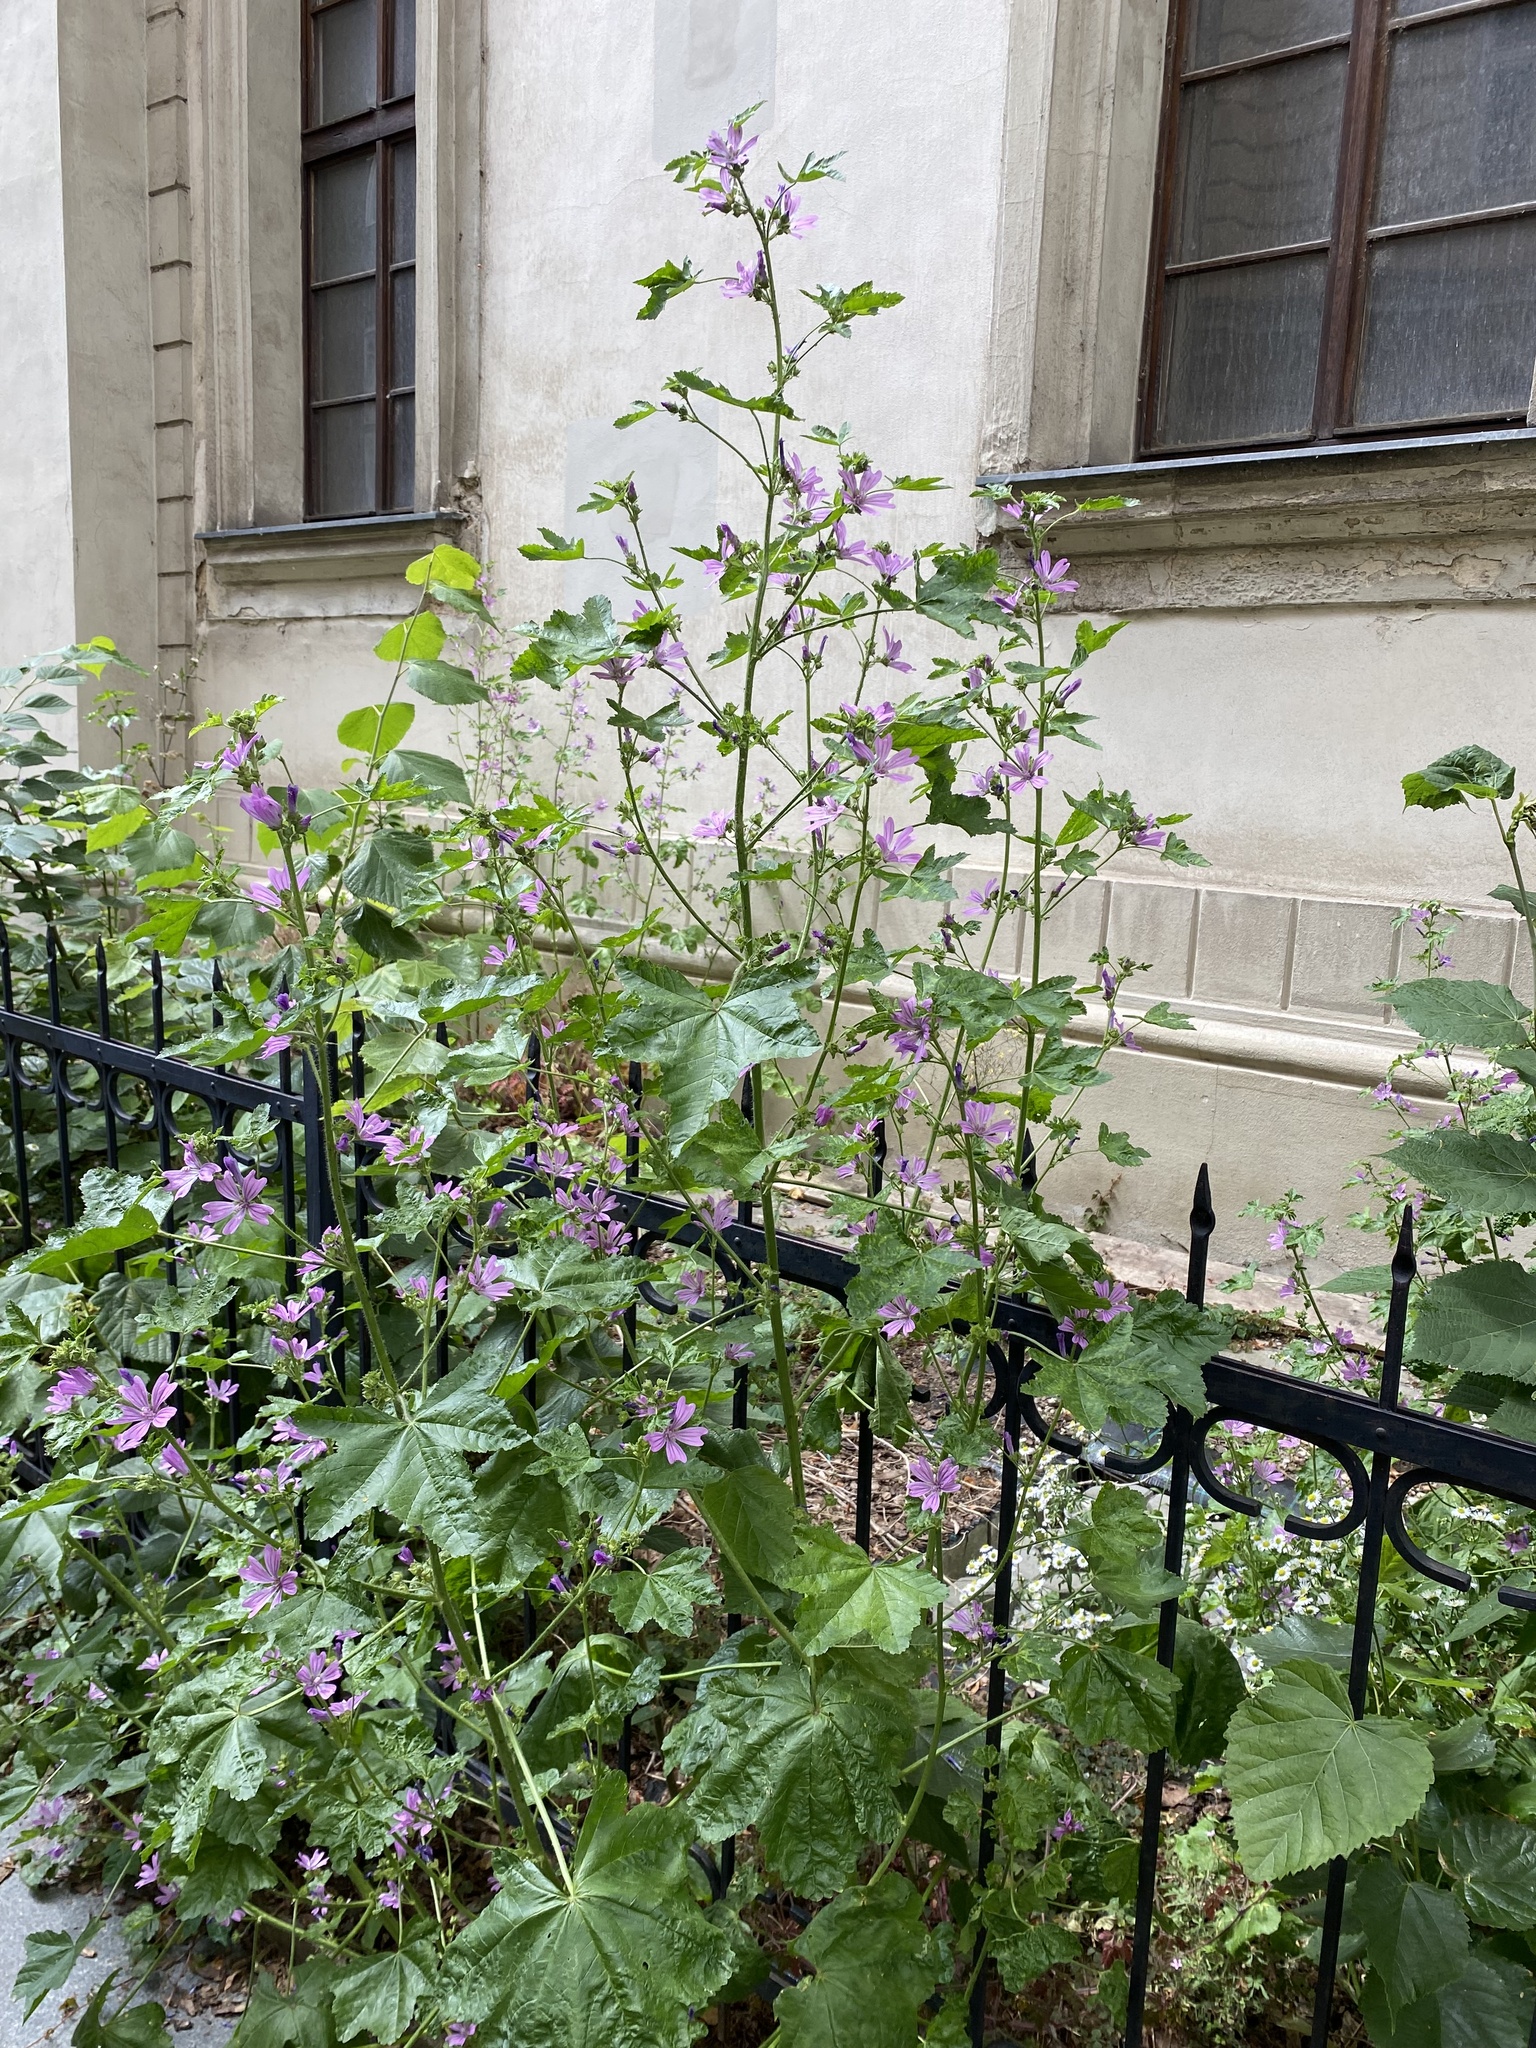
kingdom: Plantae
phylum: Tracheophyta
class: Magnoliopsida
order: Malvales
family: Malvaceae
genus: Malva
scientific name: Malva sylvestris
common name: Common mallow
